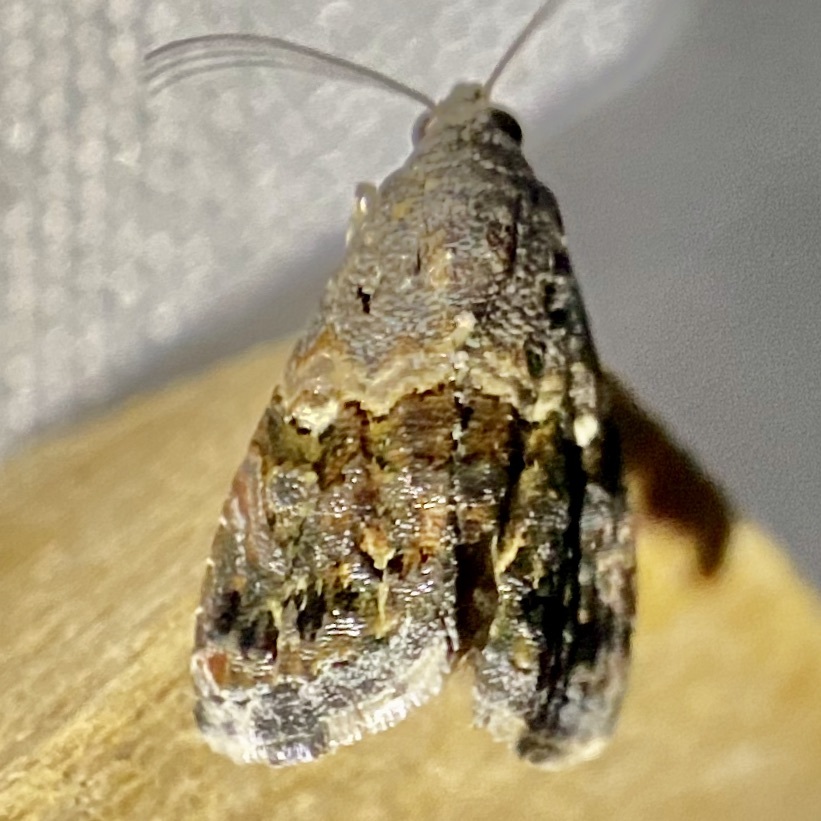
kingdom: Animalia
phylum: Arthropoda
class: Insecta
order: Lepidoptera
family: Noctuidae
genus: Tripudia
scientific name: Tripudia luxuriosa
